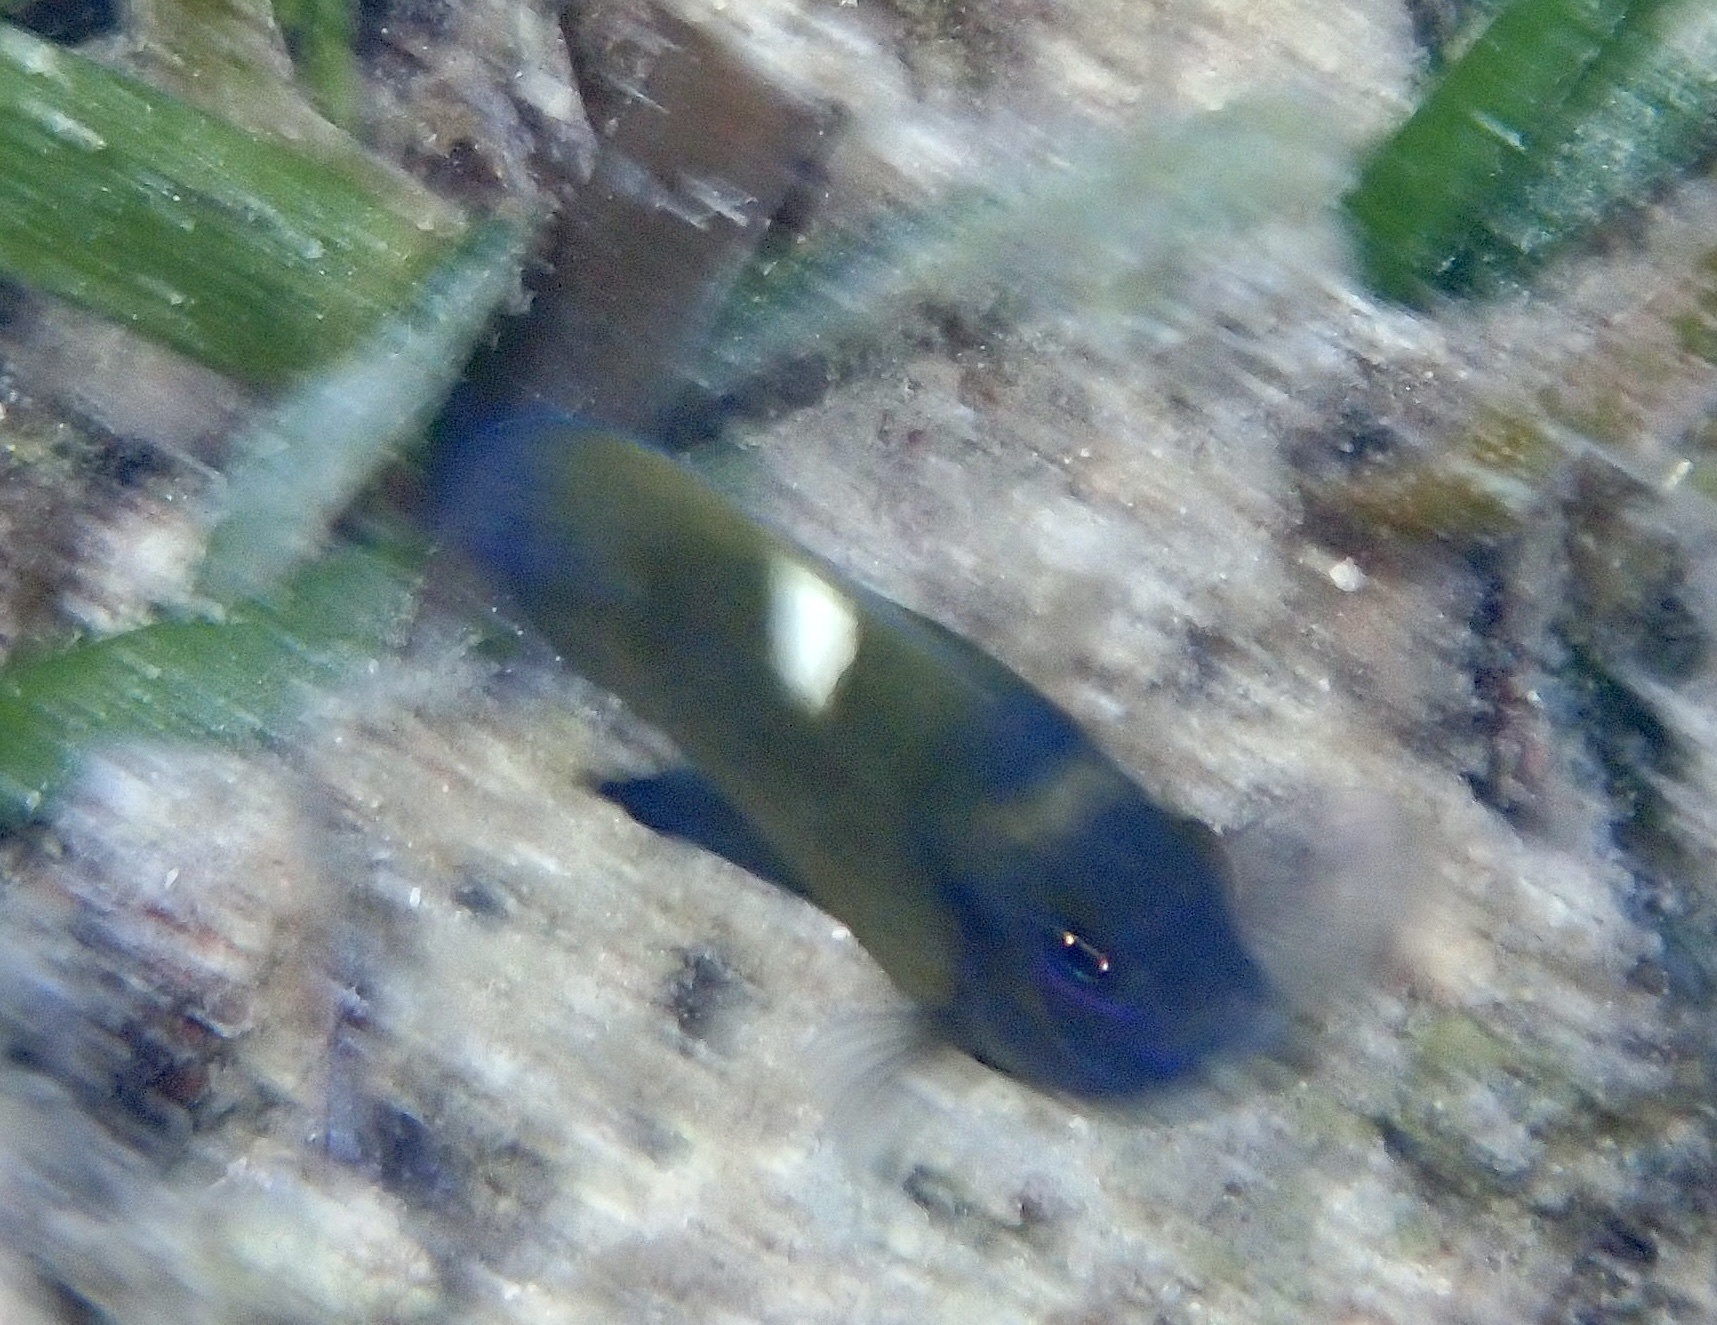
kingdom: Animalia
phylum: Chordata
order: Perciformes
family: Pomacentridae
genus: Dischistodus
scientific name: Dischistodus chrysopoecilus
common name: White-spot damsel
